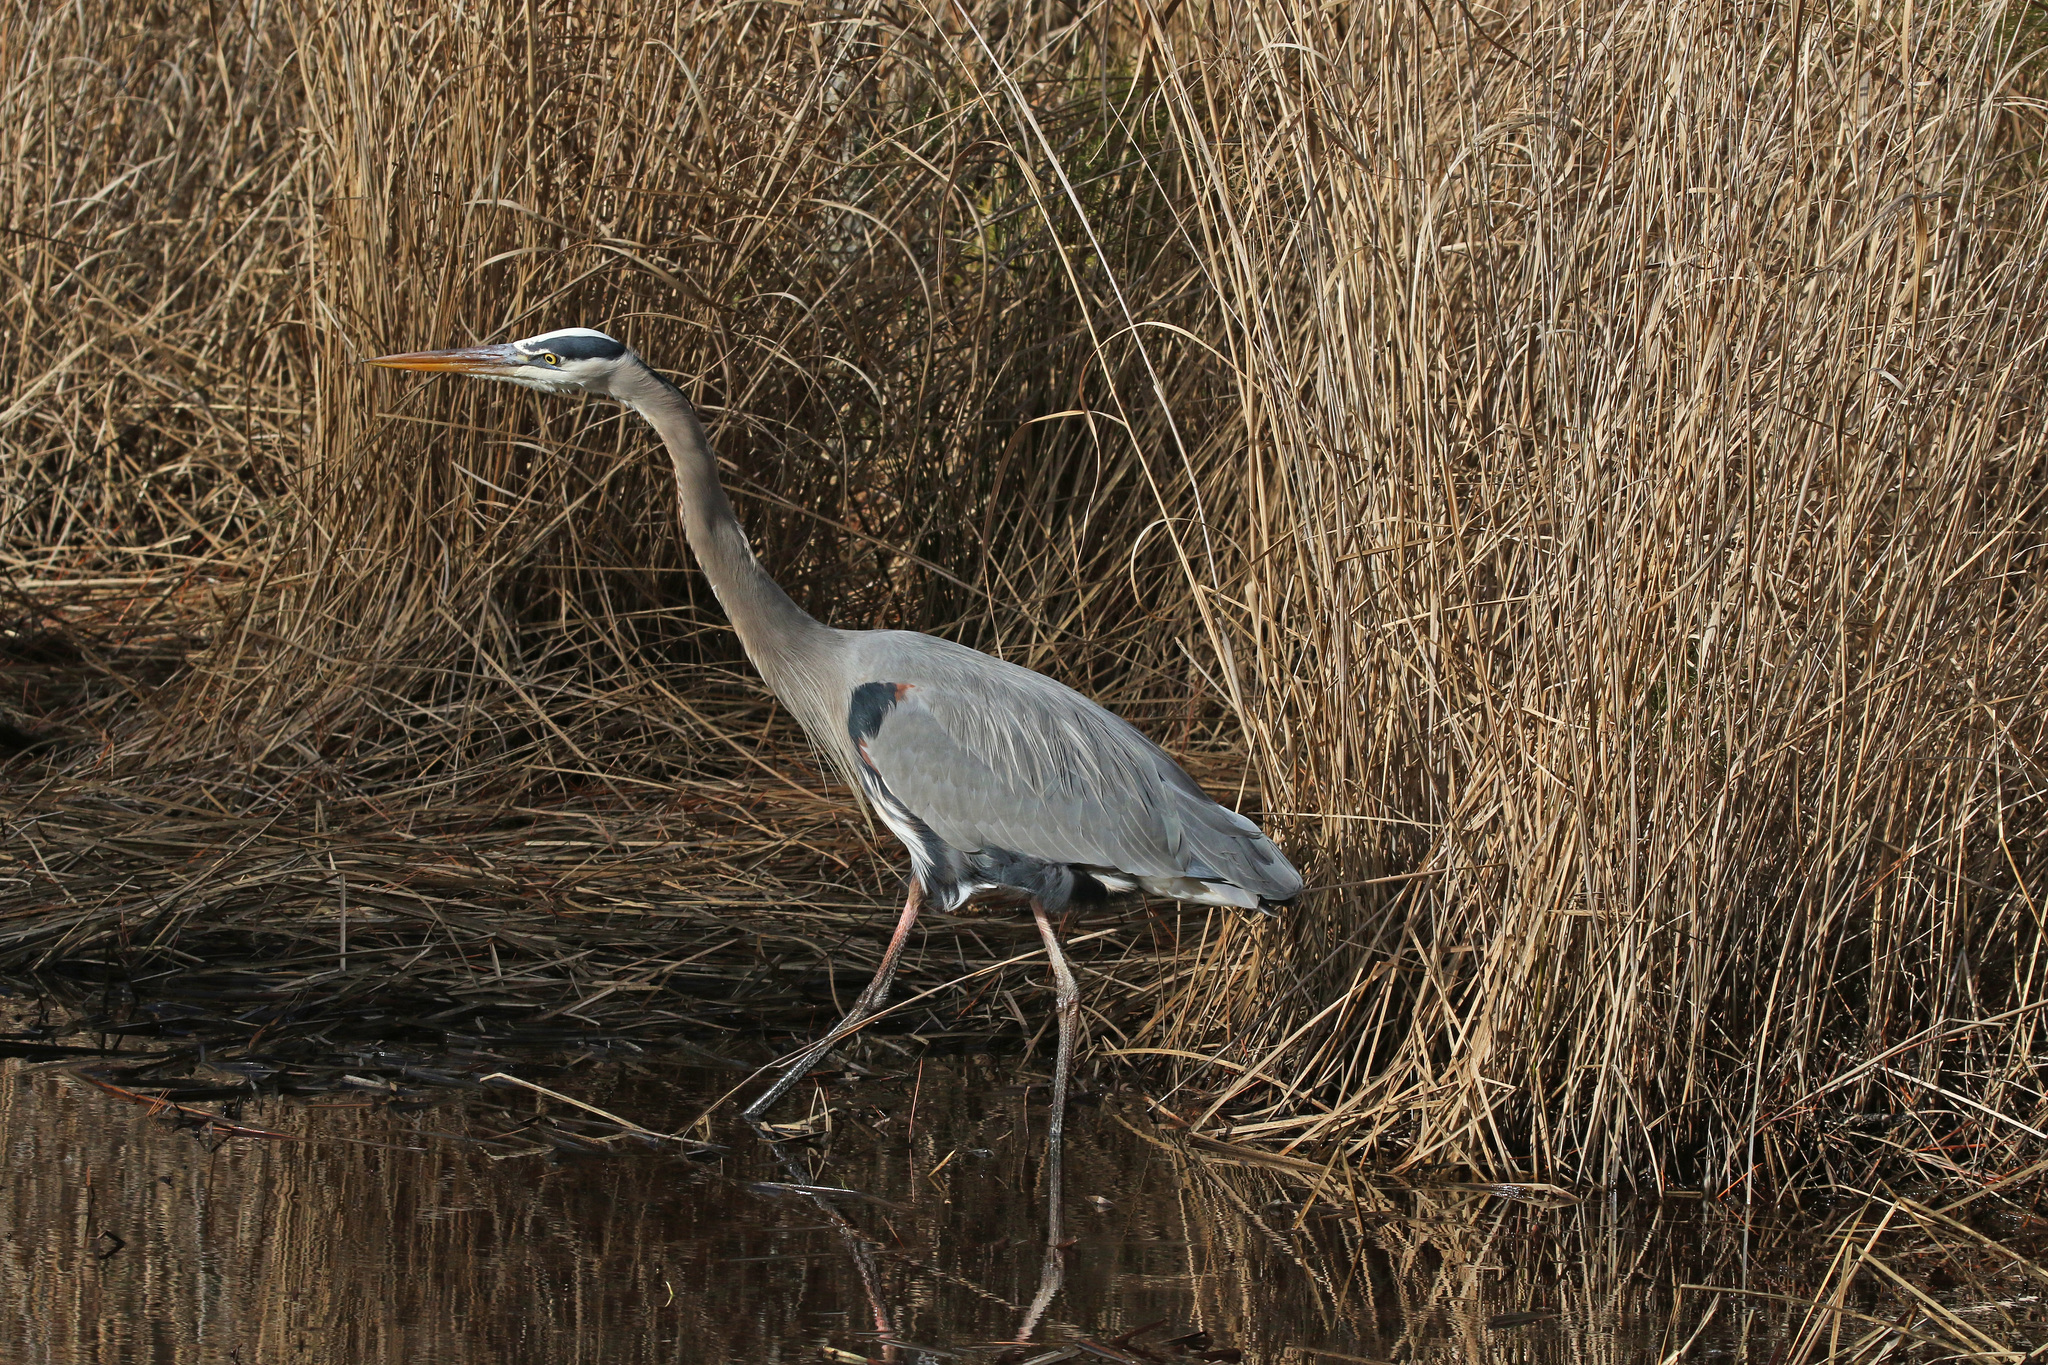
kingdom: Animalia
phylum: Chordata
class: Aves
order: Pelecaniformes
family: Ardeidae
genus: Ardea
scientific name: Ardea herodias
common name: Great blue heron
